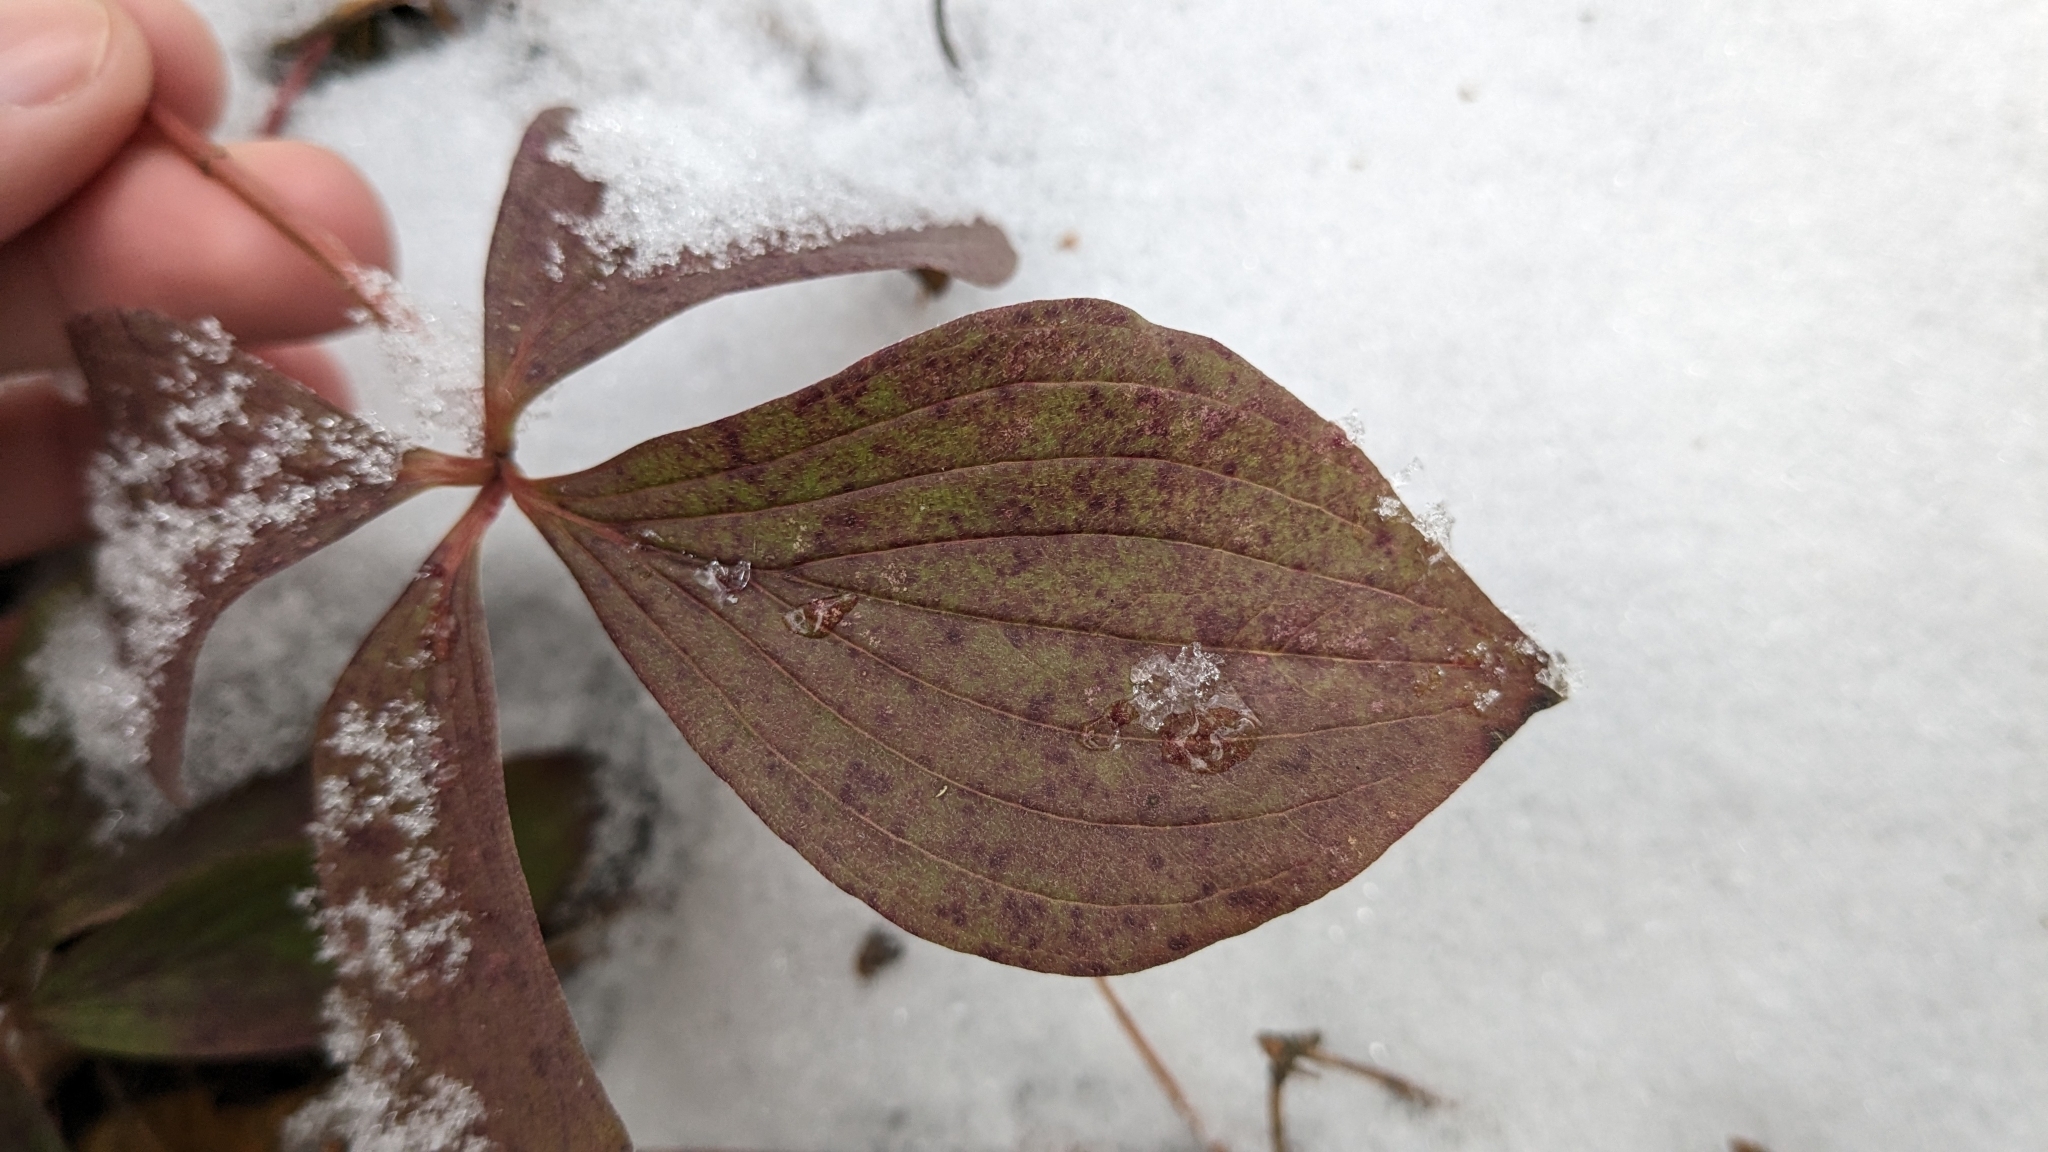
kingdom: Plantae
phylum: Tracheophyta
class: Magnoliopsida
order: Cornales
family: Cornaceae
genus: Cornus
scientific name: Cornus canadensis
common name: Creeping dogwood
